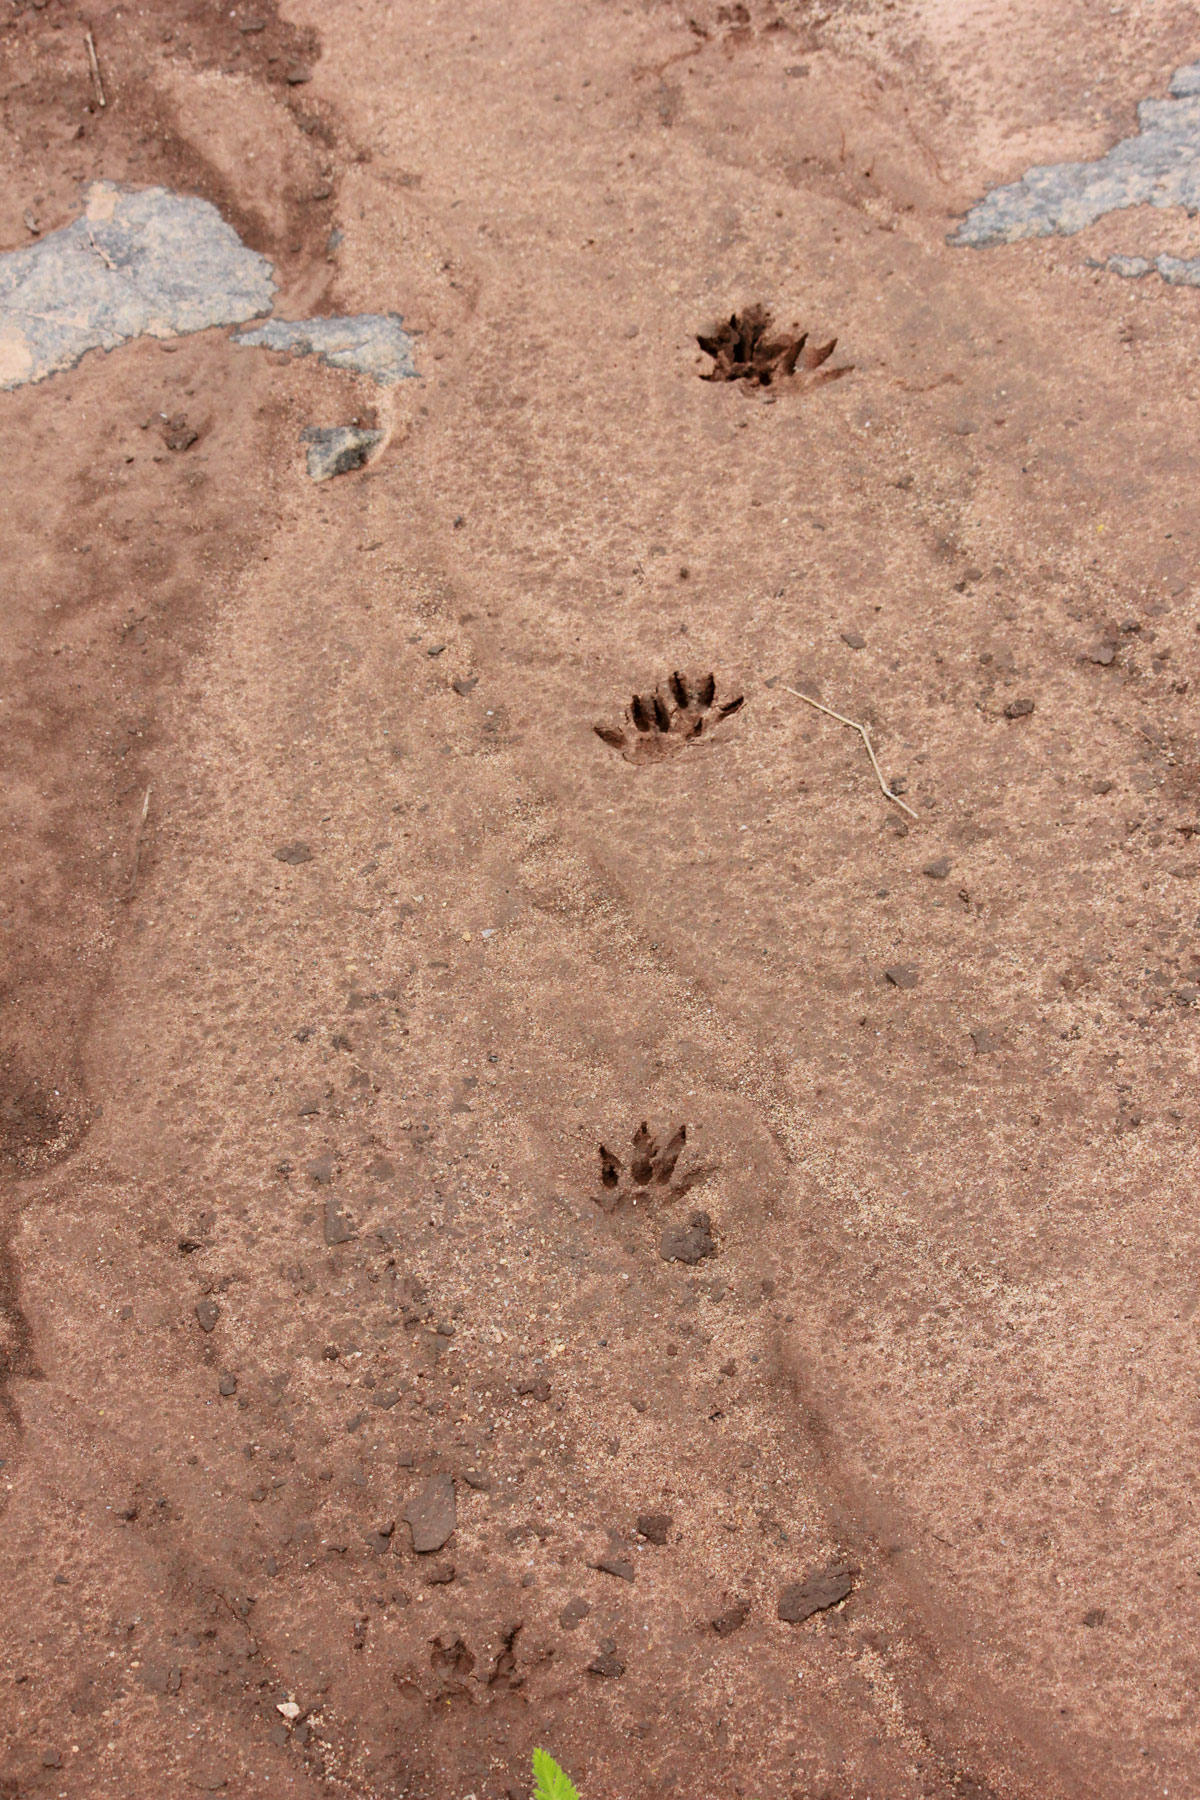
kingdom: Animalia
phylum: Chordata
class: Mammalia
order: Carnivora
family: Herpestidae
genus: Atilax
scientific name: Atilax paludinosus
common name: Marsh mongoose
